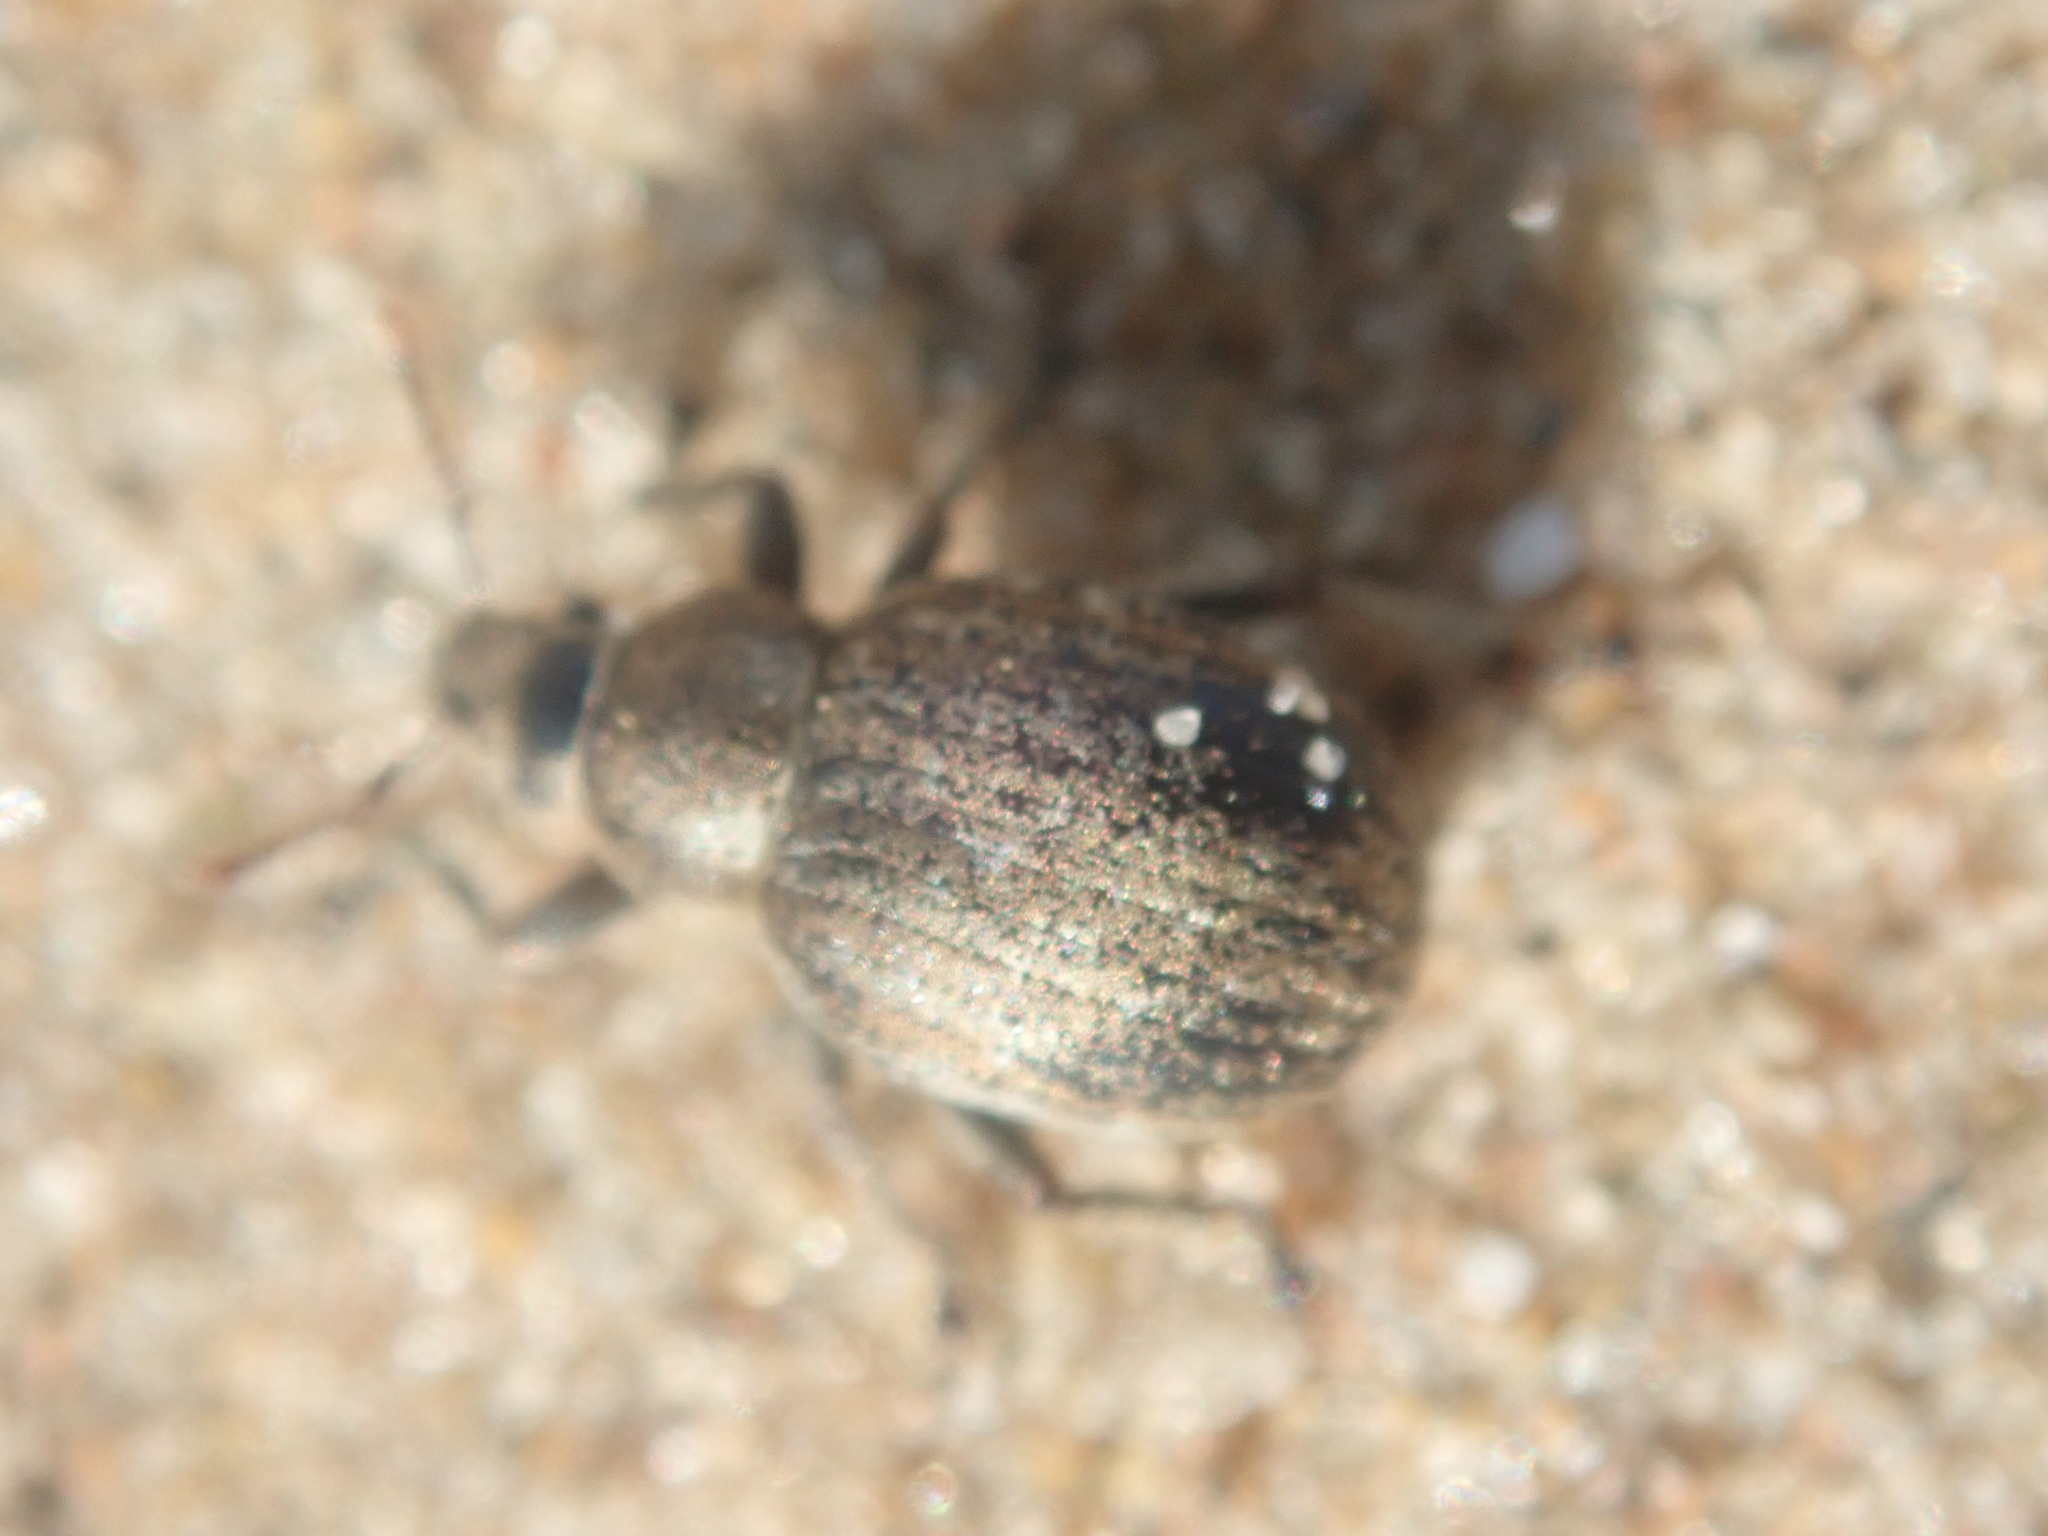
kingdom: Animalia
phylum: Arthropoda
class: Insecta
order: Coleoptera
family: Curculionidae
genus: Philopedon
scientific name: Philopedon plagiatum
